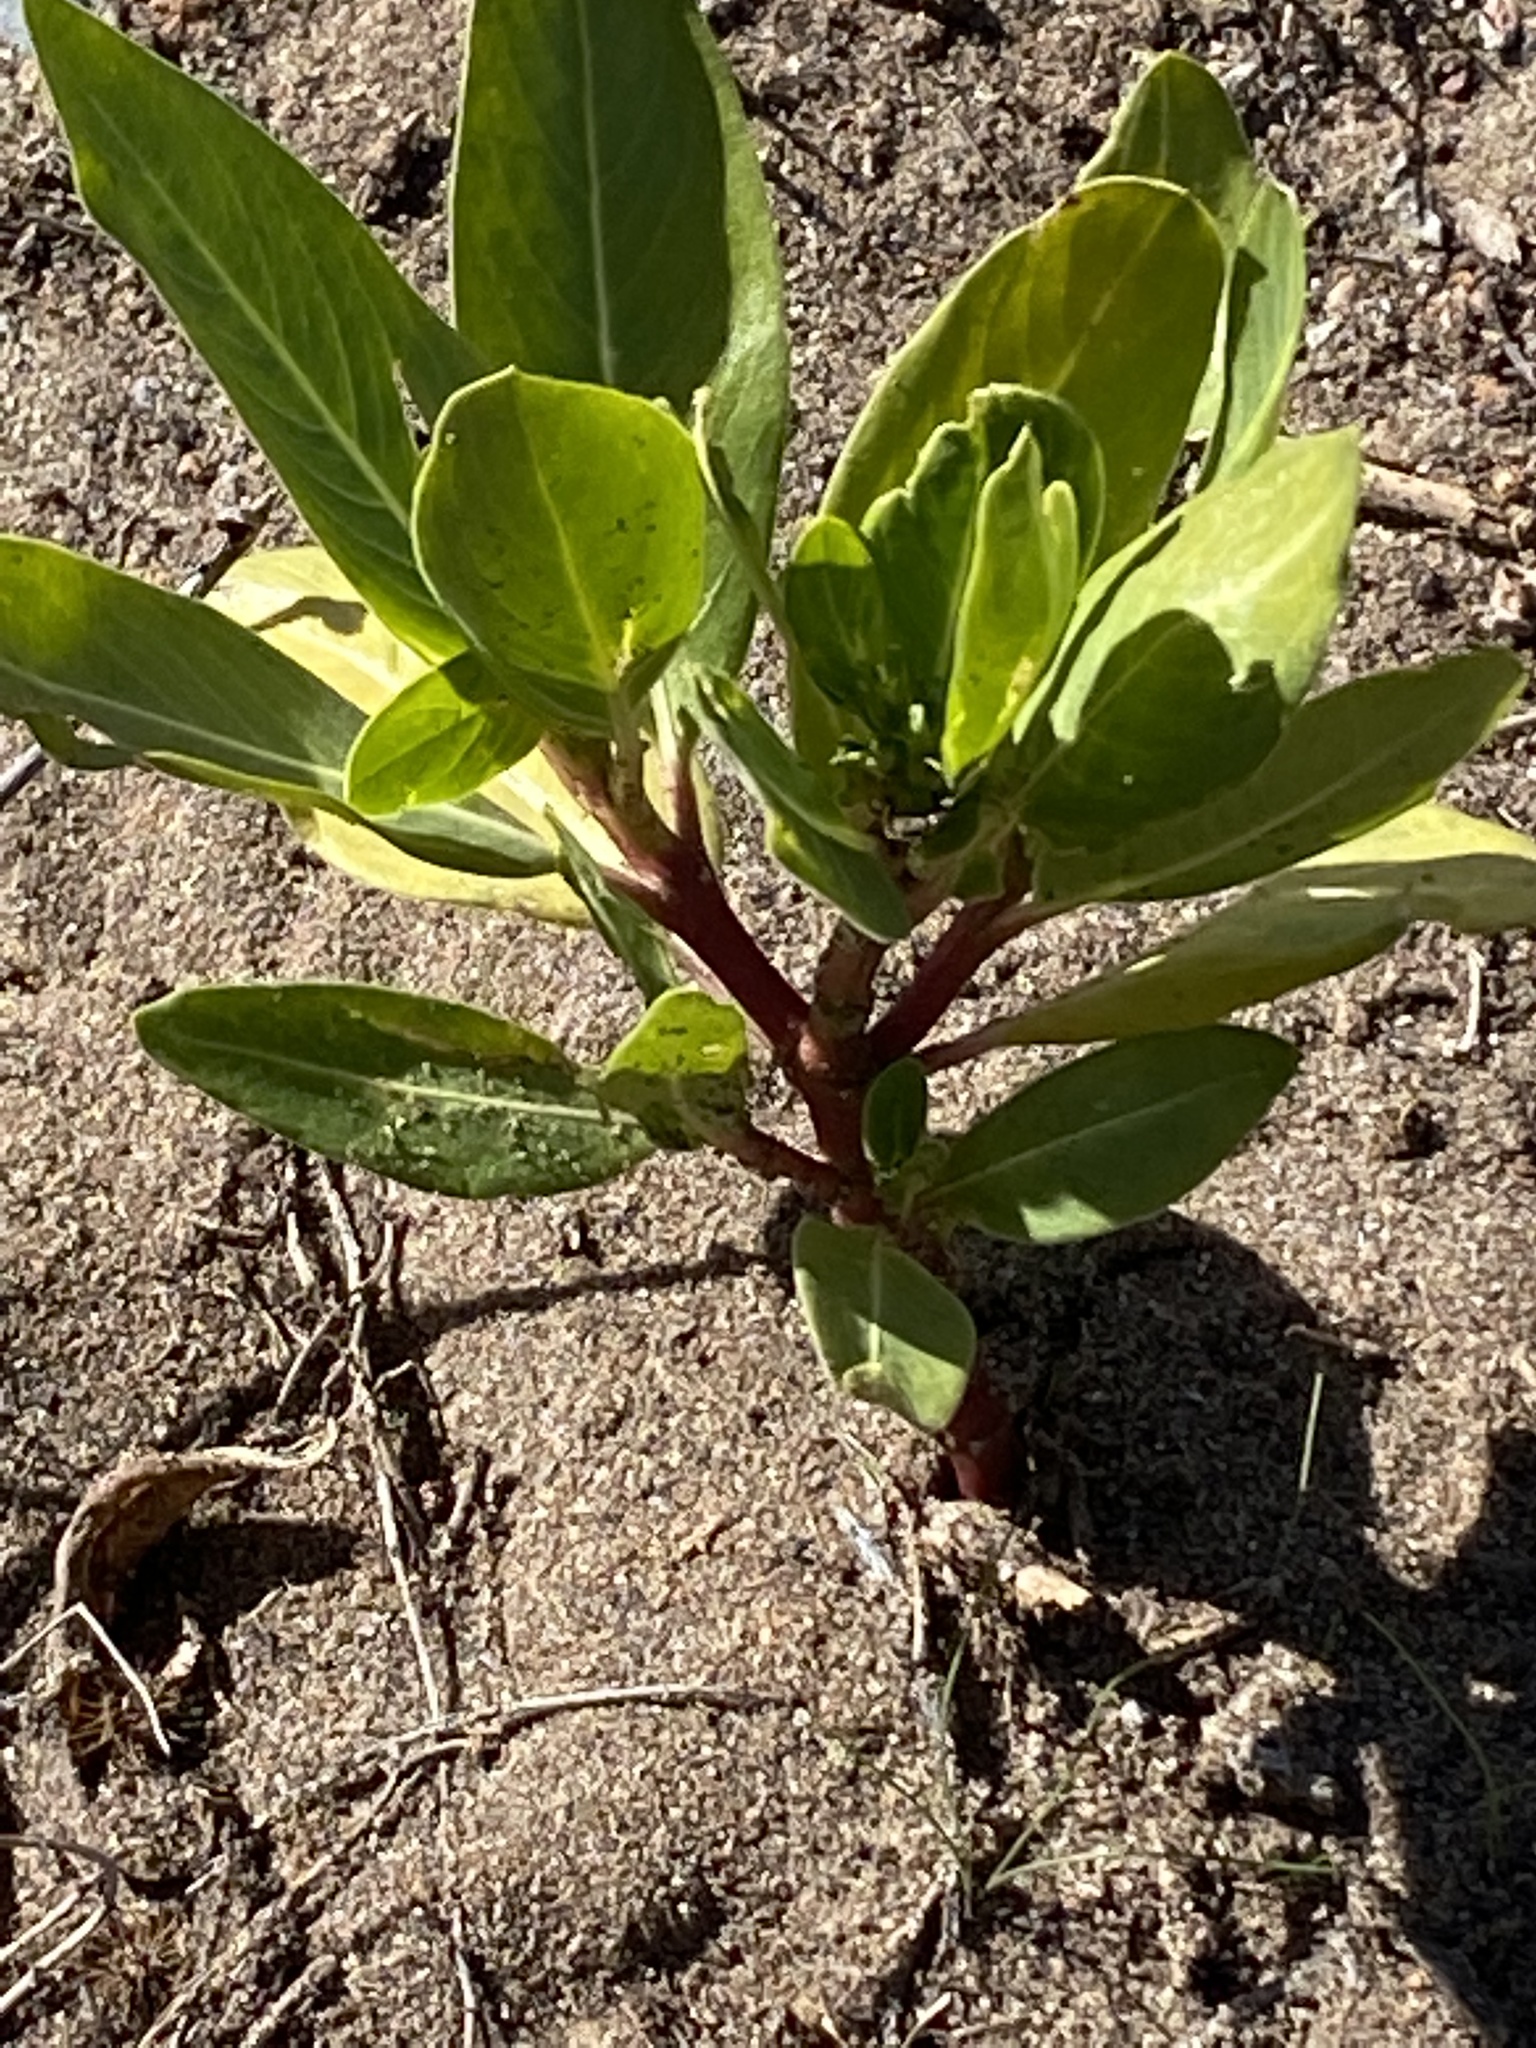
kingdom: Plantae
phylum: Tracheophyta
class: Magnoliopsida
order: Gentianales
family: Apocynaceae
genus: Catharanthus
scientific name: Catharanthus roseus
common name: Madagascar periwinkle
